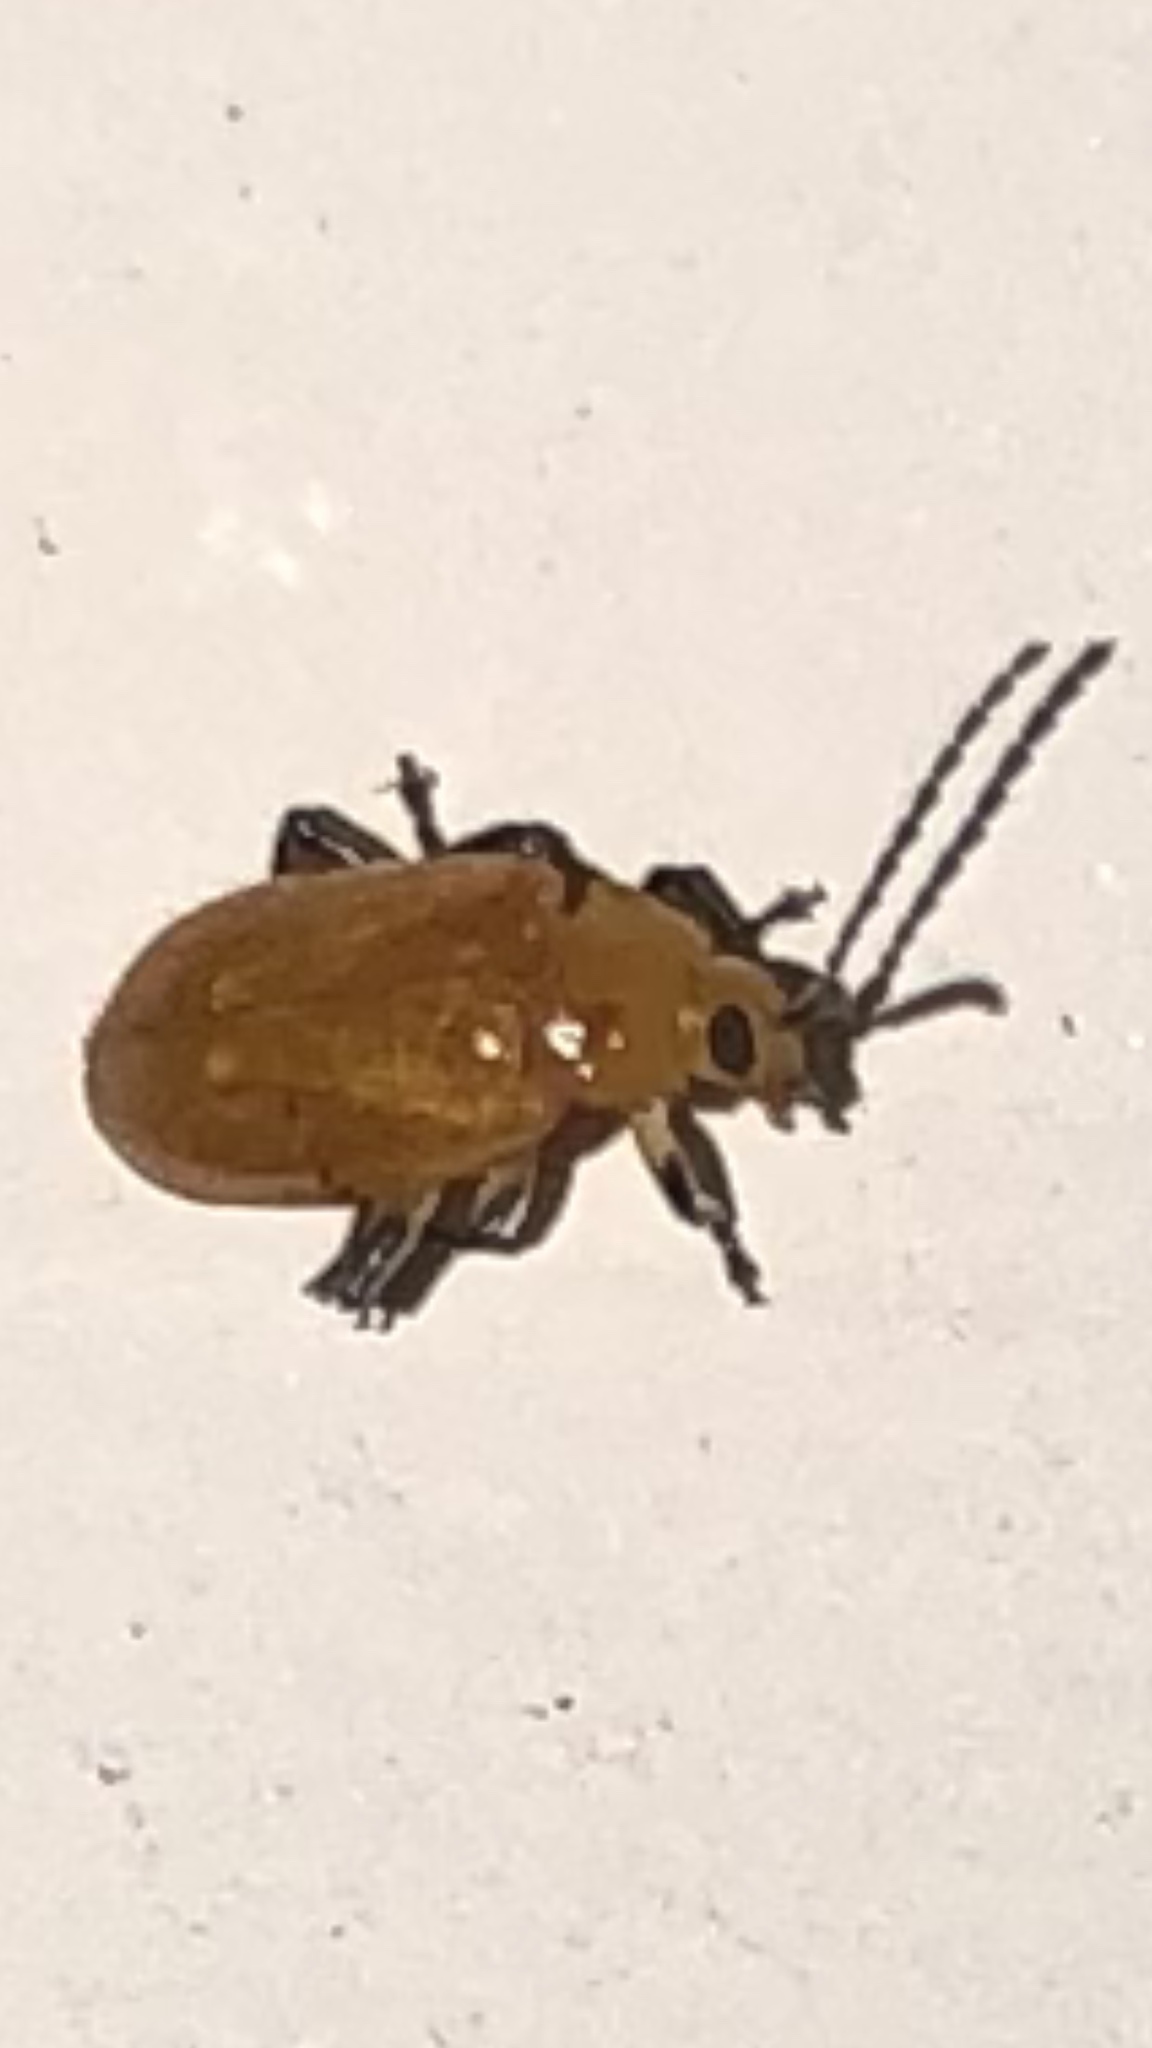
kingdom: Animalia
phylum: Arthropoda
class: Insecta
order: Coleoptera
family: Chrysomelidae
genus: Parchicola
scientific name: Parchicola tibialis
